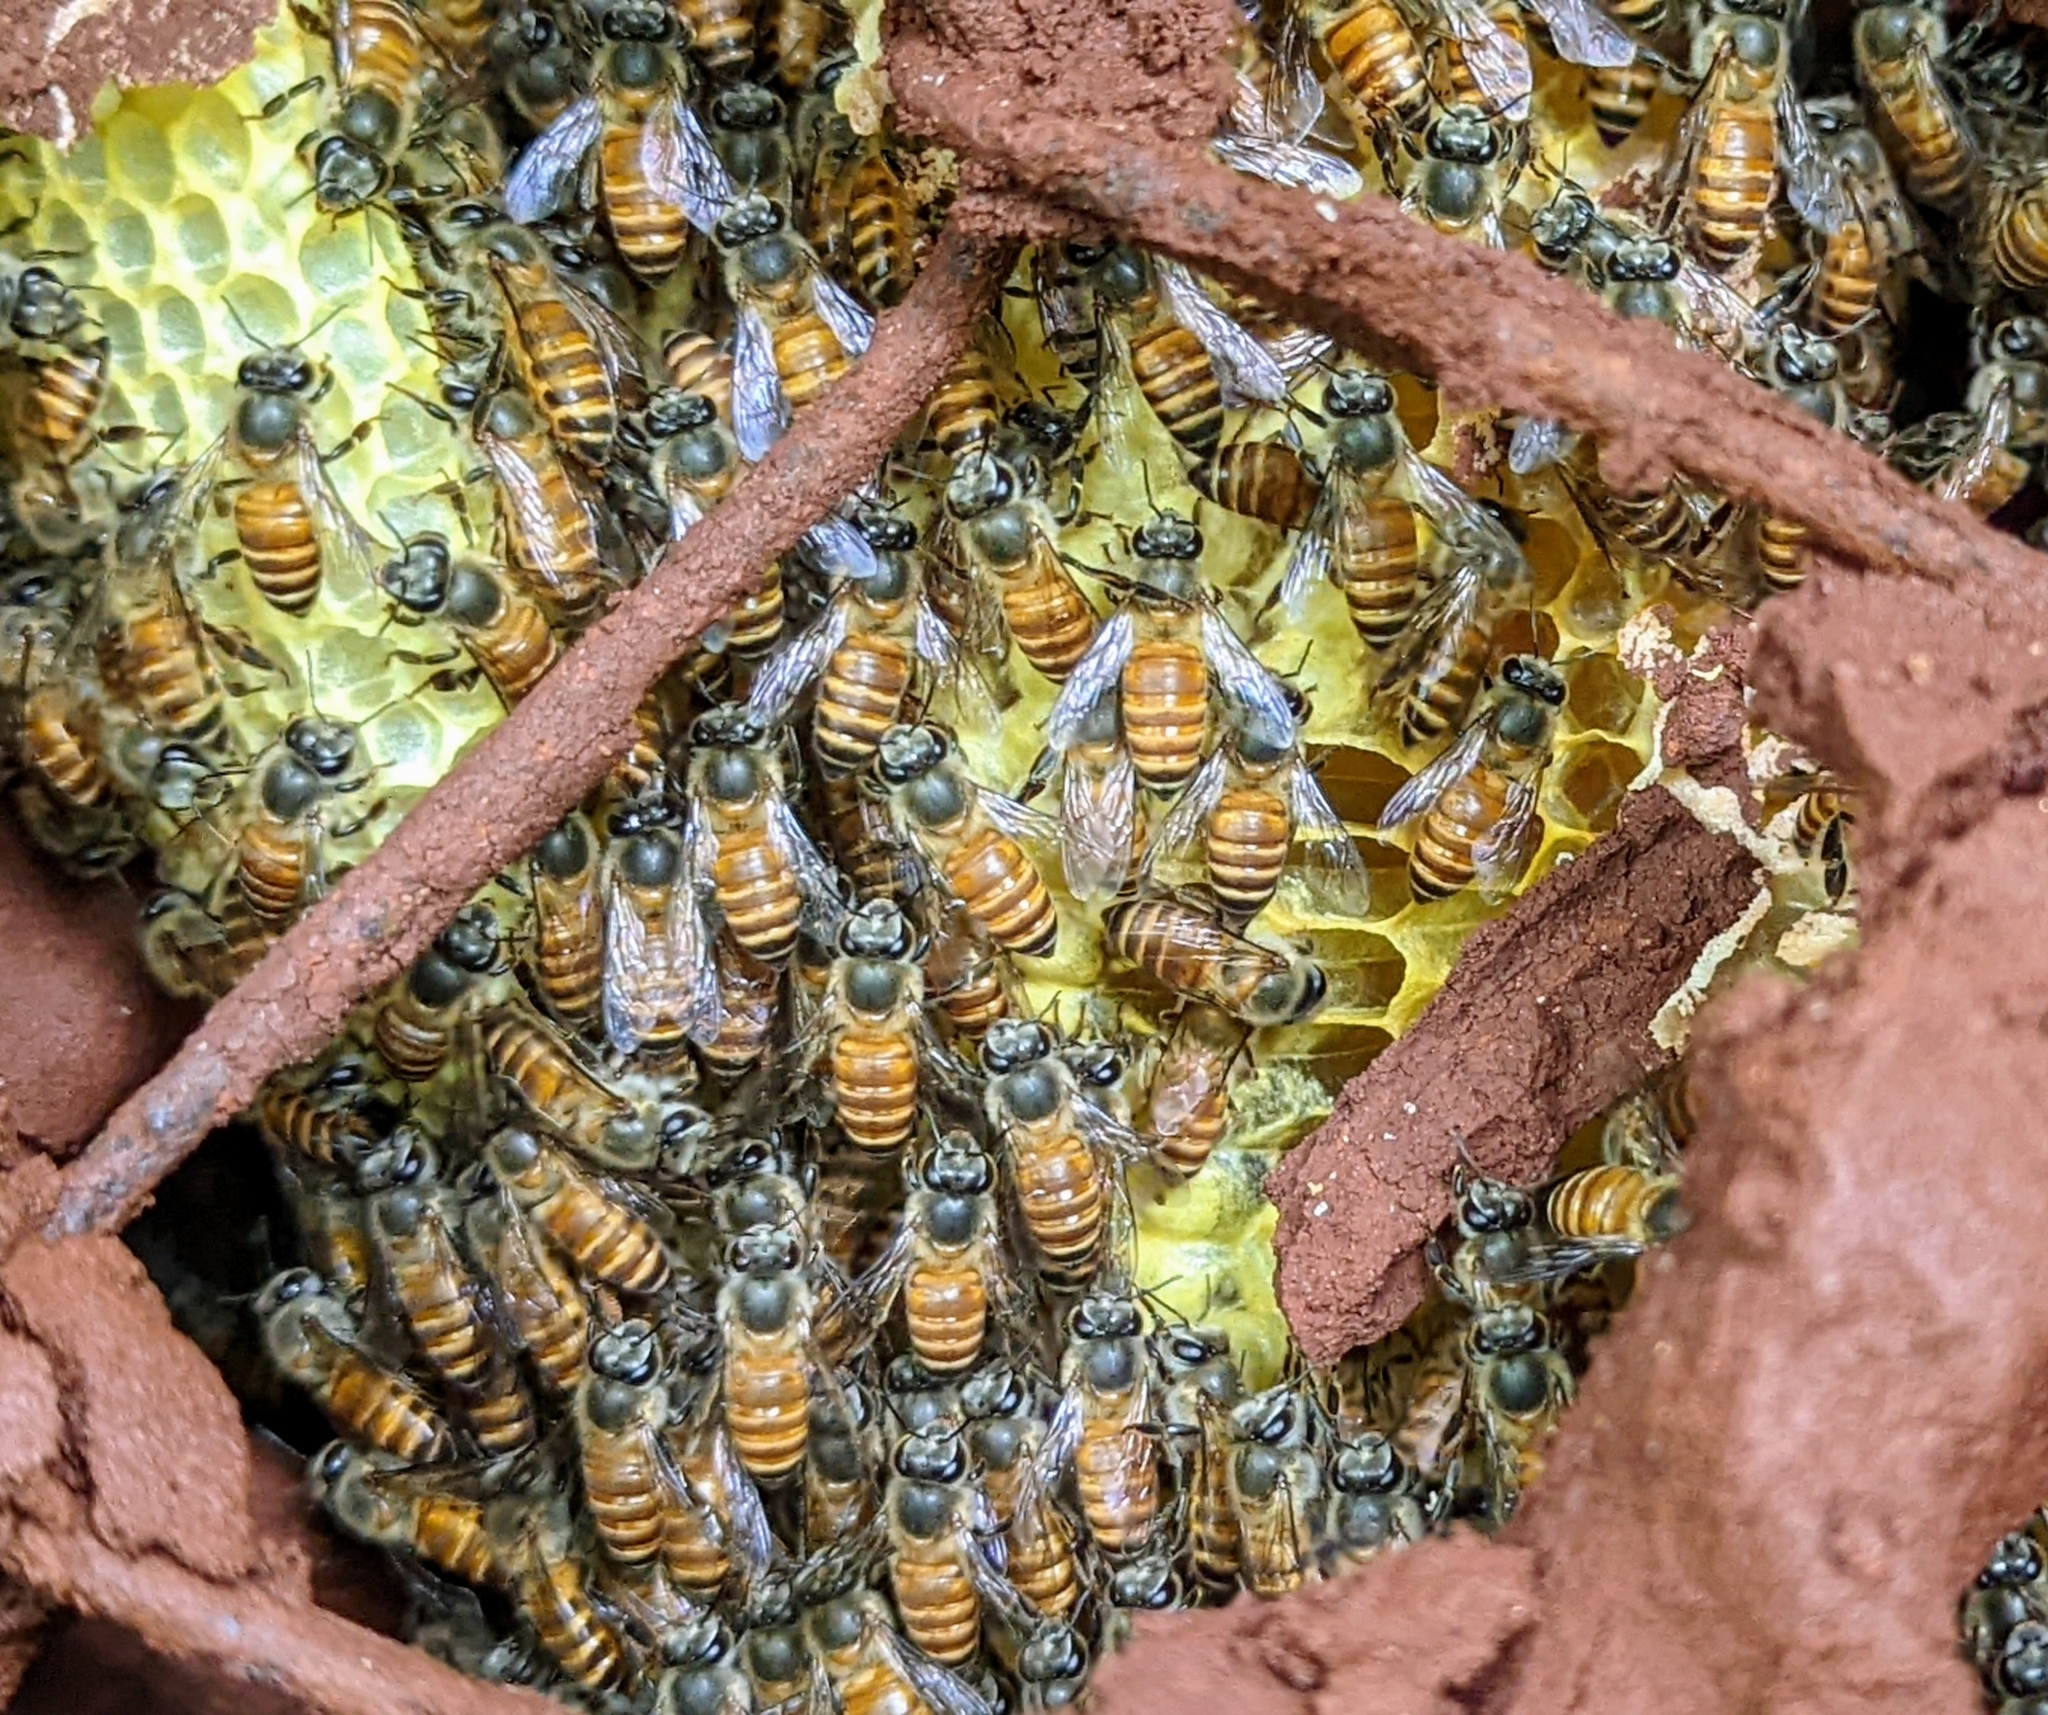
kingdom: Animalia
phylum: Arthropoda
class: Insecta
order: Hymenoptera
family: Apidae
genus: Apis
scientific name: Apis cerana
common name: Honey bee
